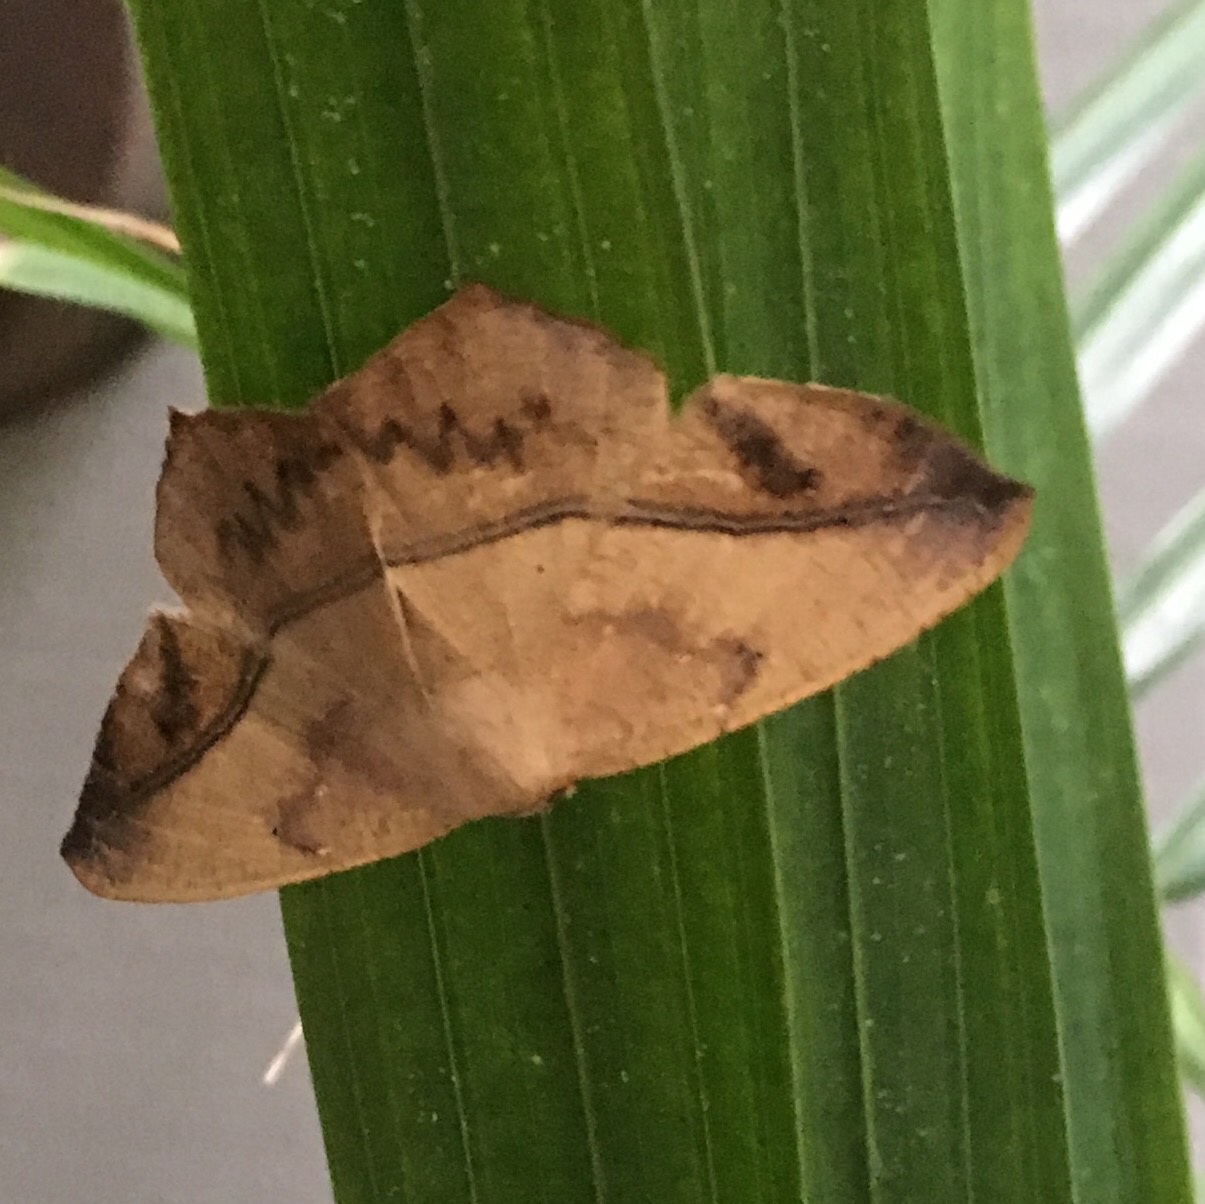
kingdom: Animalia
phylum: Arthropoda
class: Insecta
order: Lepidoptera
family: Geometridae
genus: Prochoerodes
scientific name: Prochoerodes lineola
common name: Large maple spanworm
